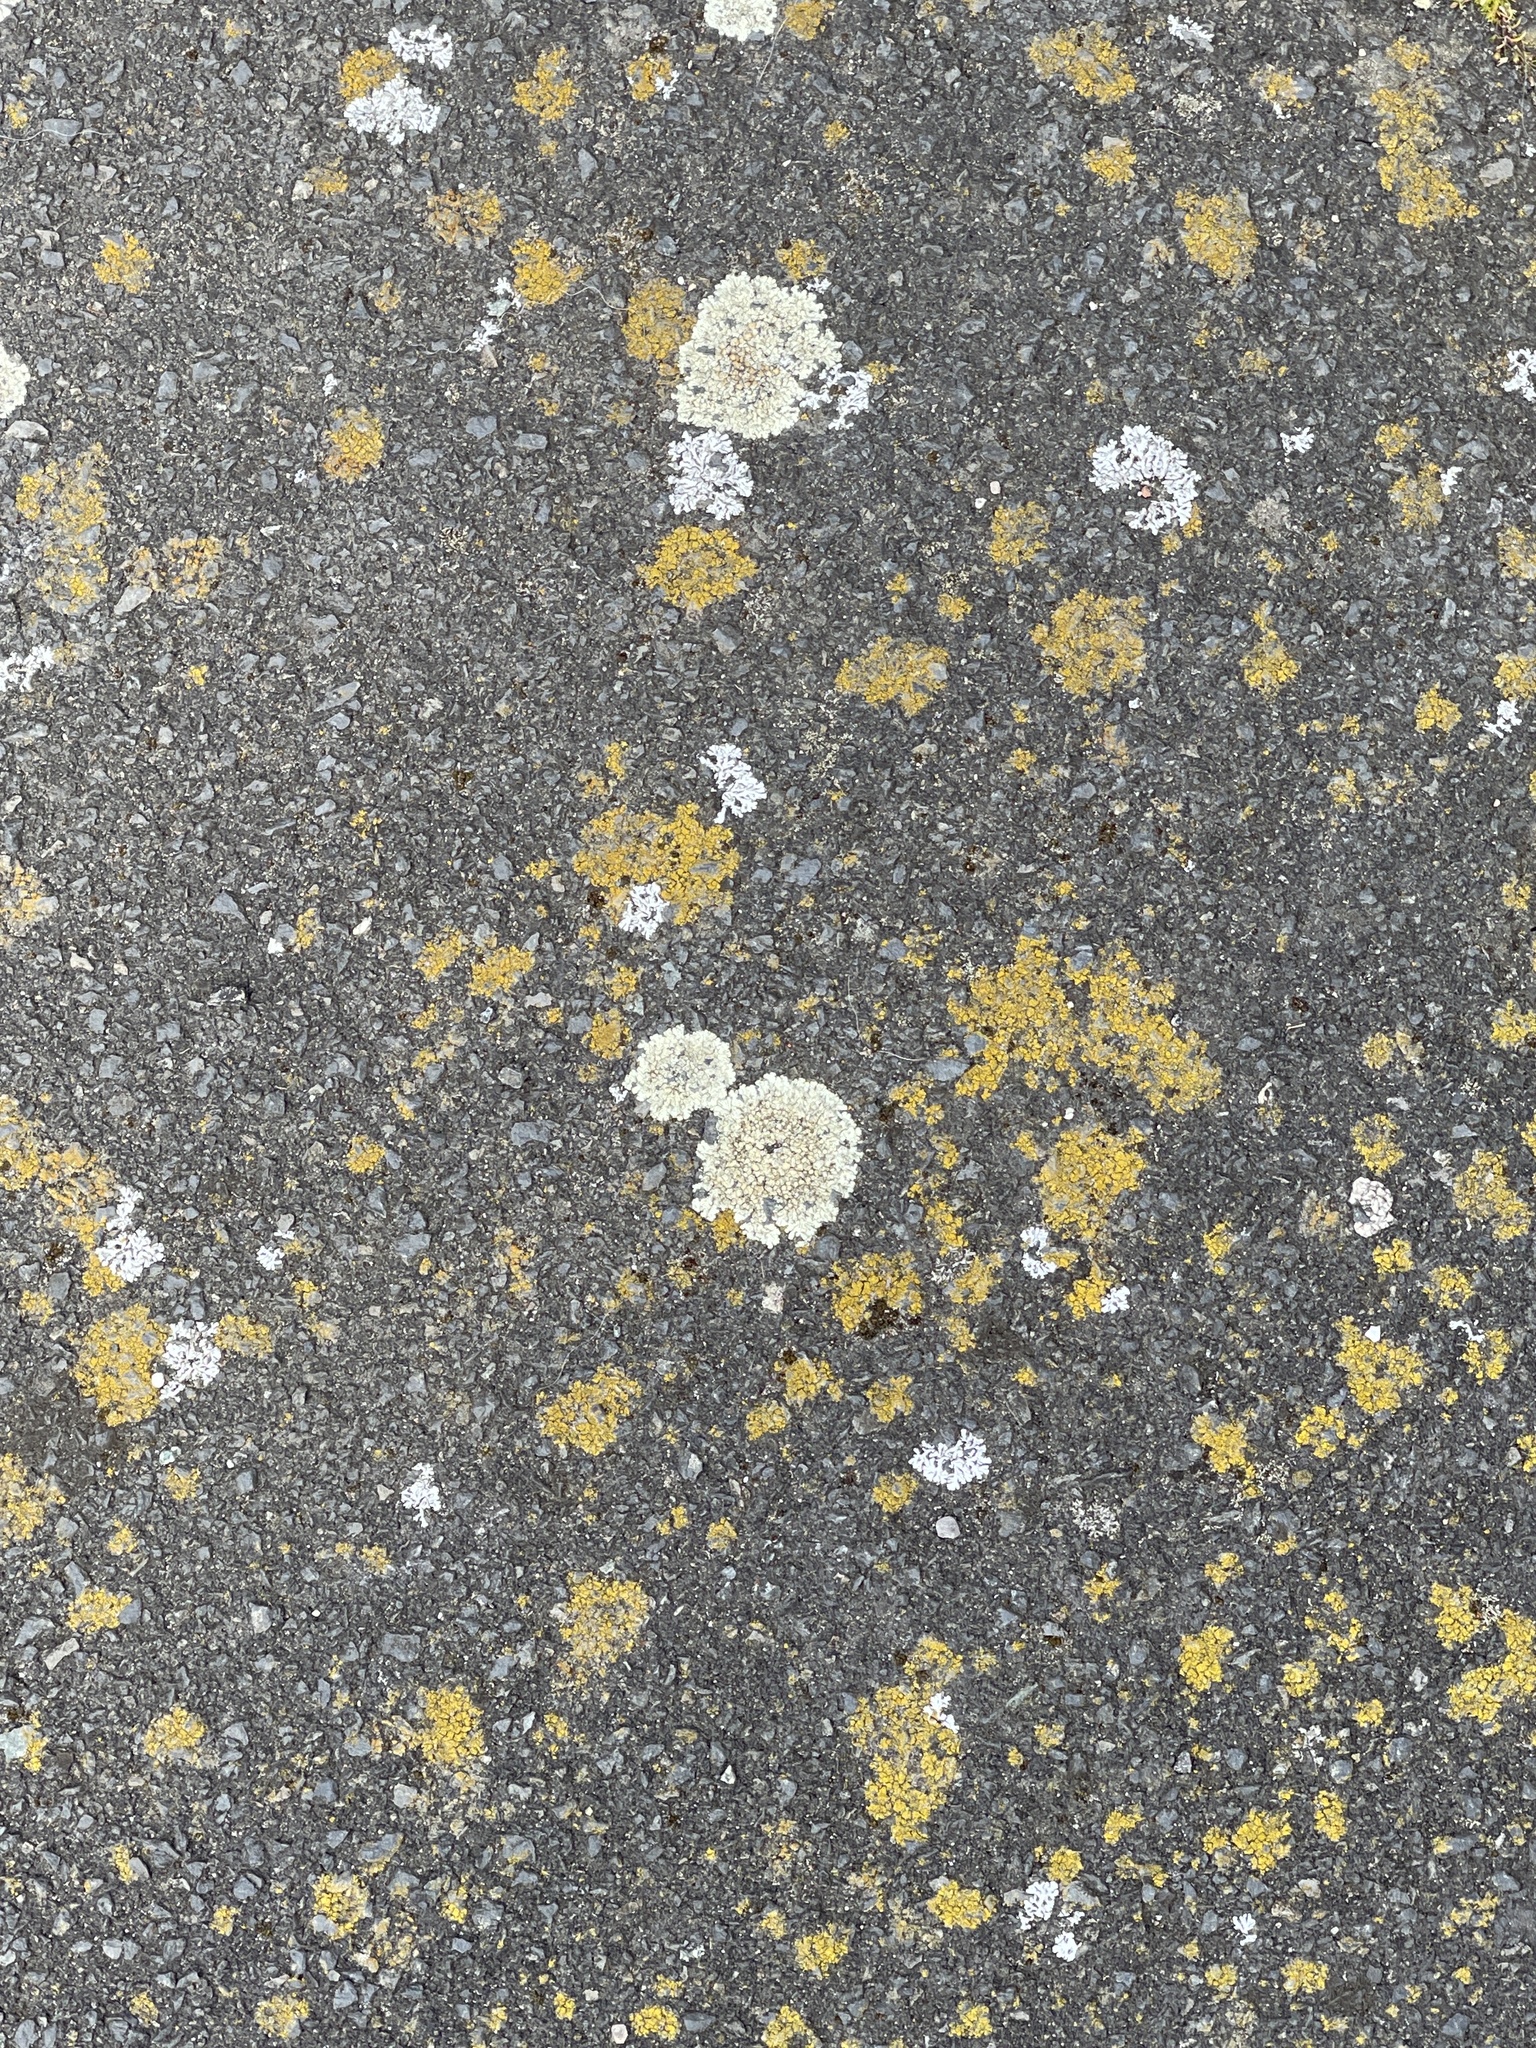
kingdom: Fungi
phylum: Ascomycota
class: Lecanoromycetes
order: Lecanorales
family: Lecanoraceae
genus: Protoparmeliopsis
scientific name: Protoparmeliopsis muralis
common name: Stonewall rim lichen
